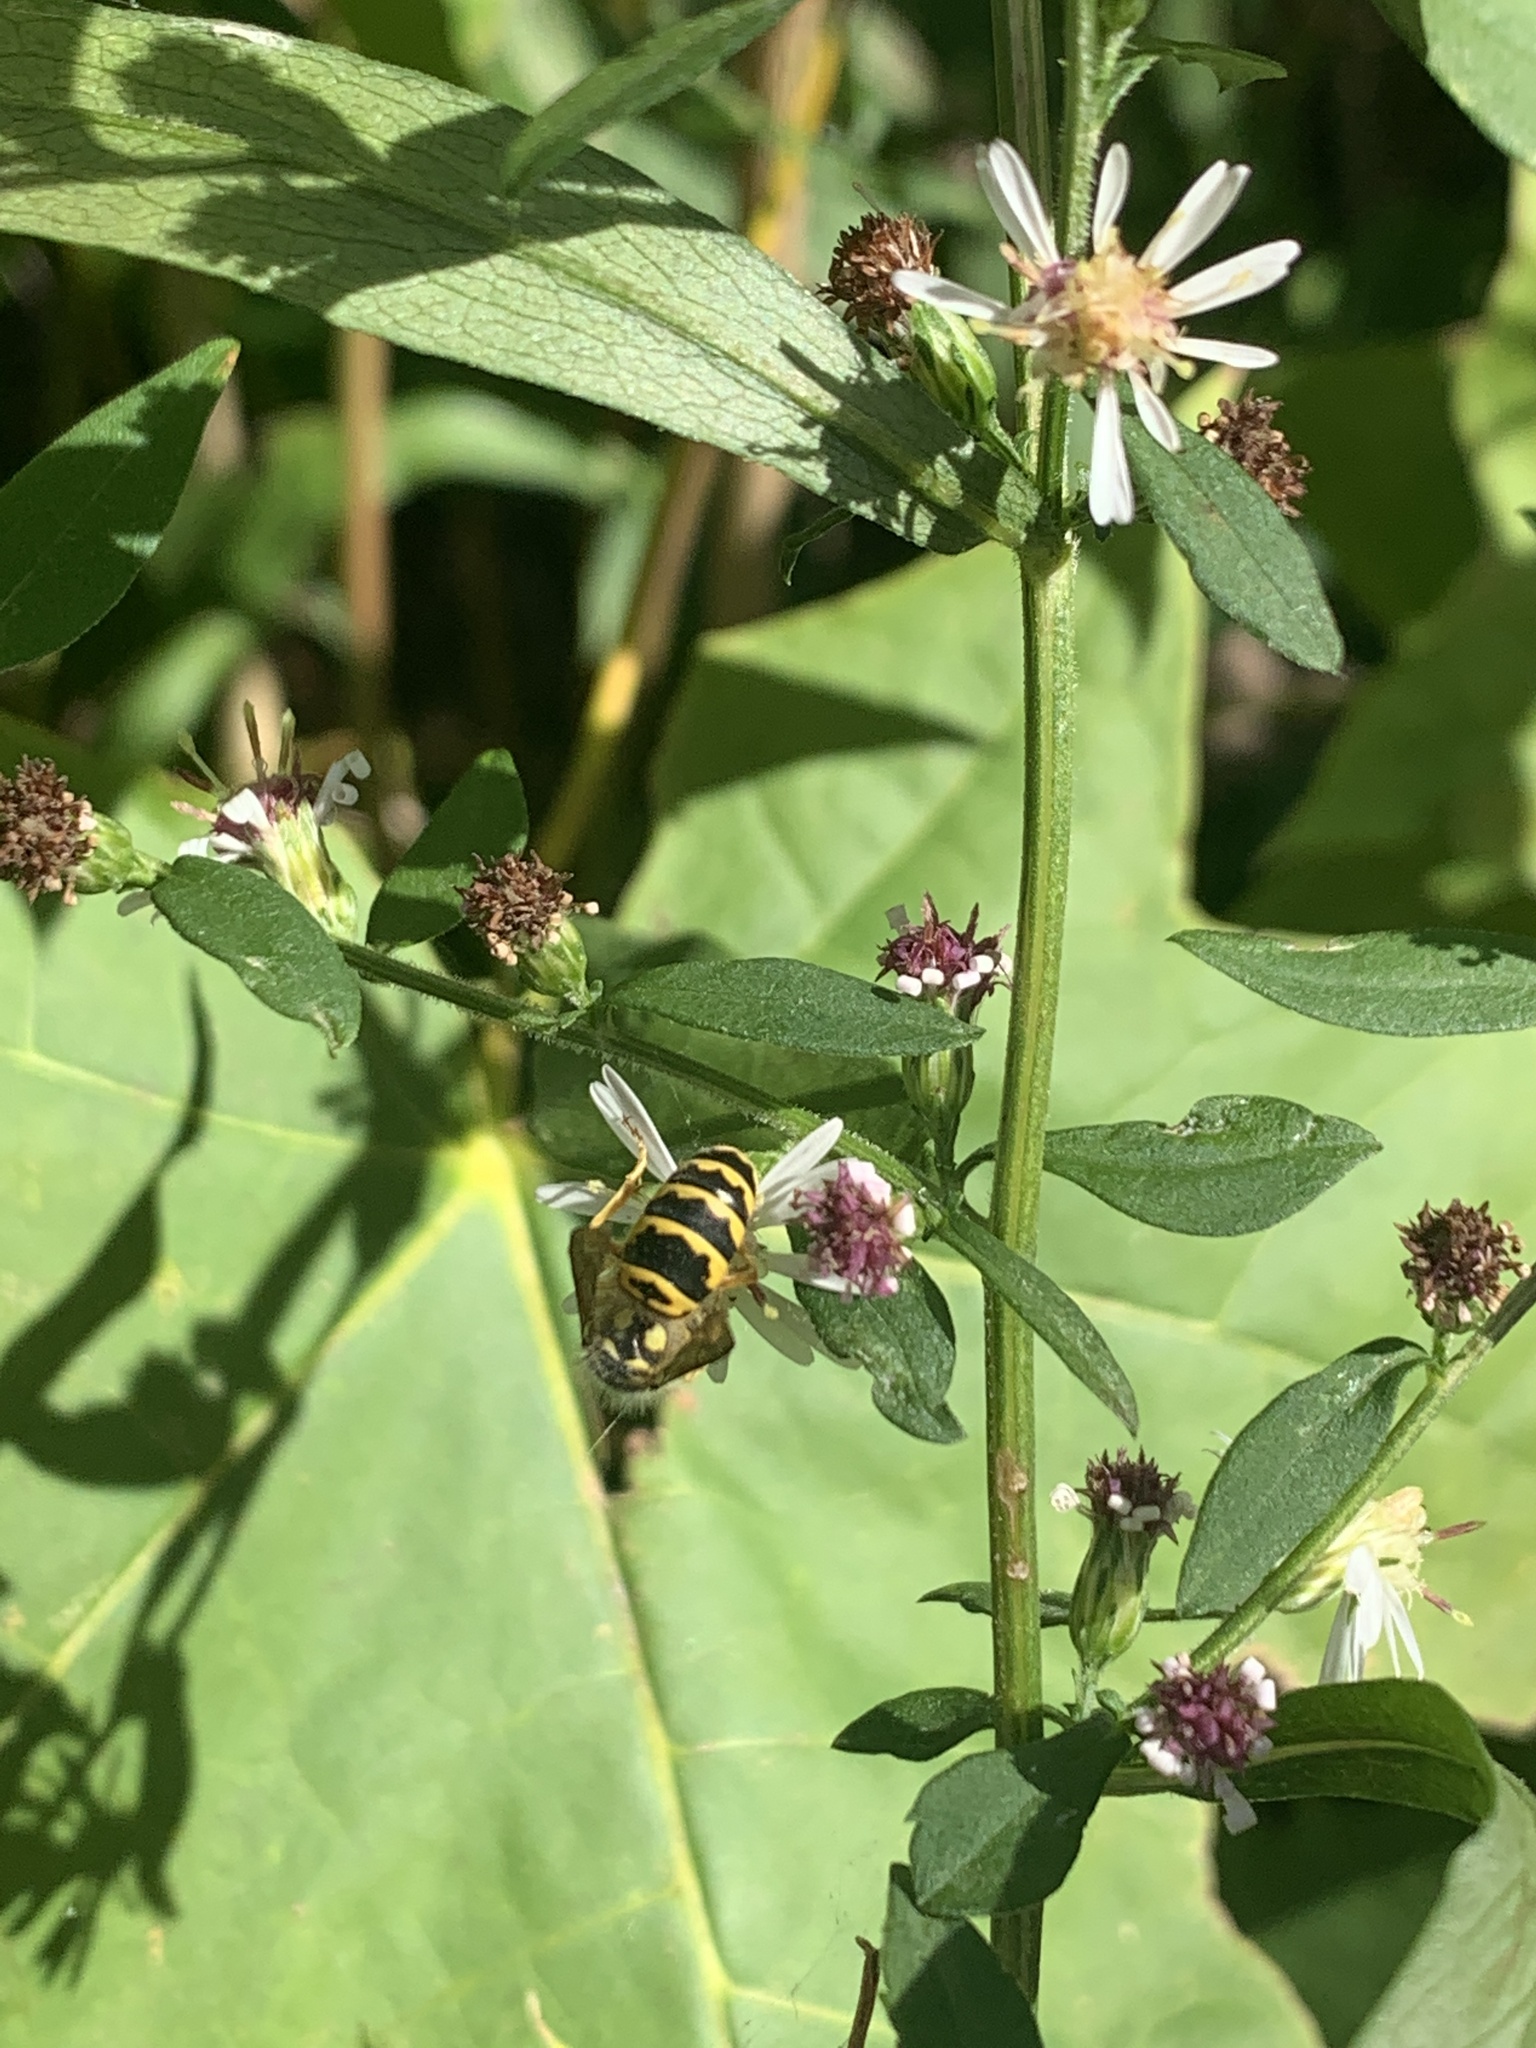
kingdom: Animalia
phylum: Arthropoda
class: Insecta
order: Hymenoptera
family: Vespidae
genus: Vespula
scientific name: Vespula maculifrons
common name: Eastern yellowjacket
